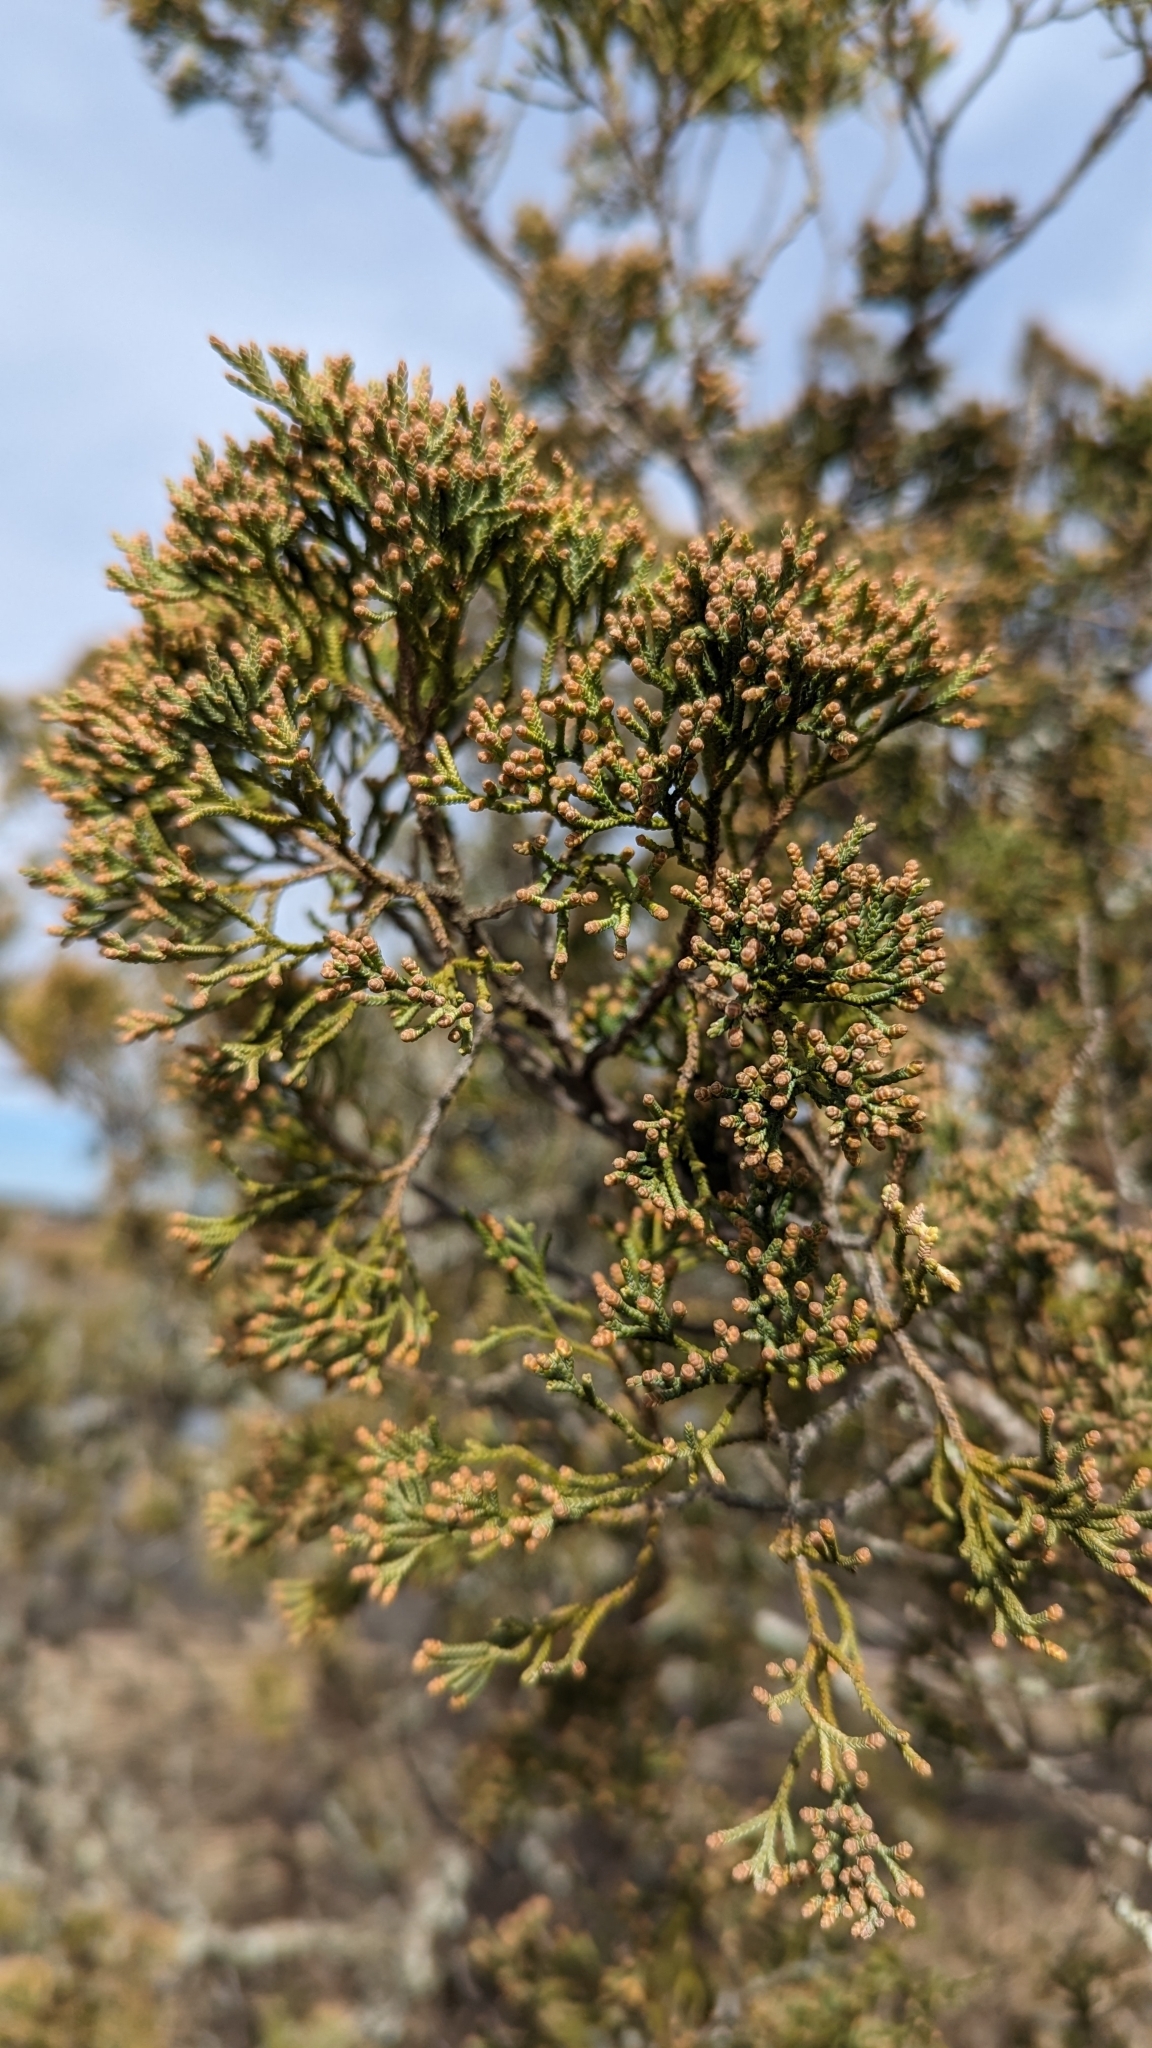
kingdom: Plantae
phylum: Tracheophyta
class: Pinopsida
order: Pinales
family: Cupressaceae
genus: Juniperus
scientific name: Juniperus virginiana
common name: Red juniper
